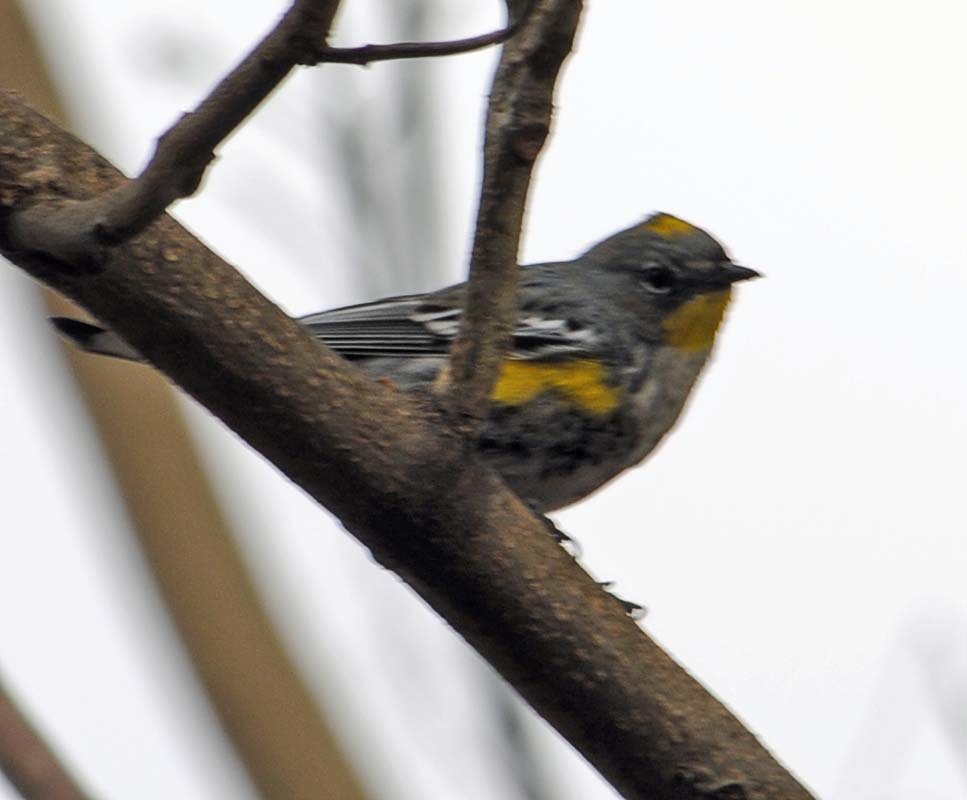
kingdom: Animalia
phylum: Chordata
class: Aves
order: Passeriformes
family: Parulidae
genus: Setophaga
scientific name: Setophaga auduboni
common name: Audubon's warbler
